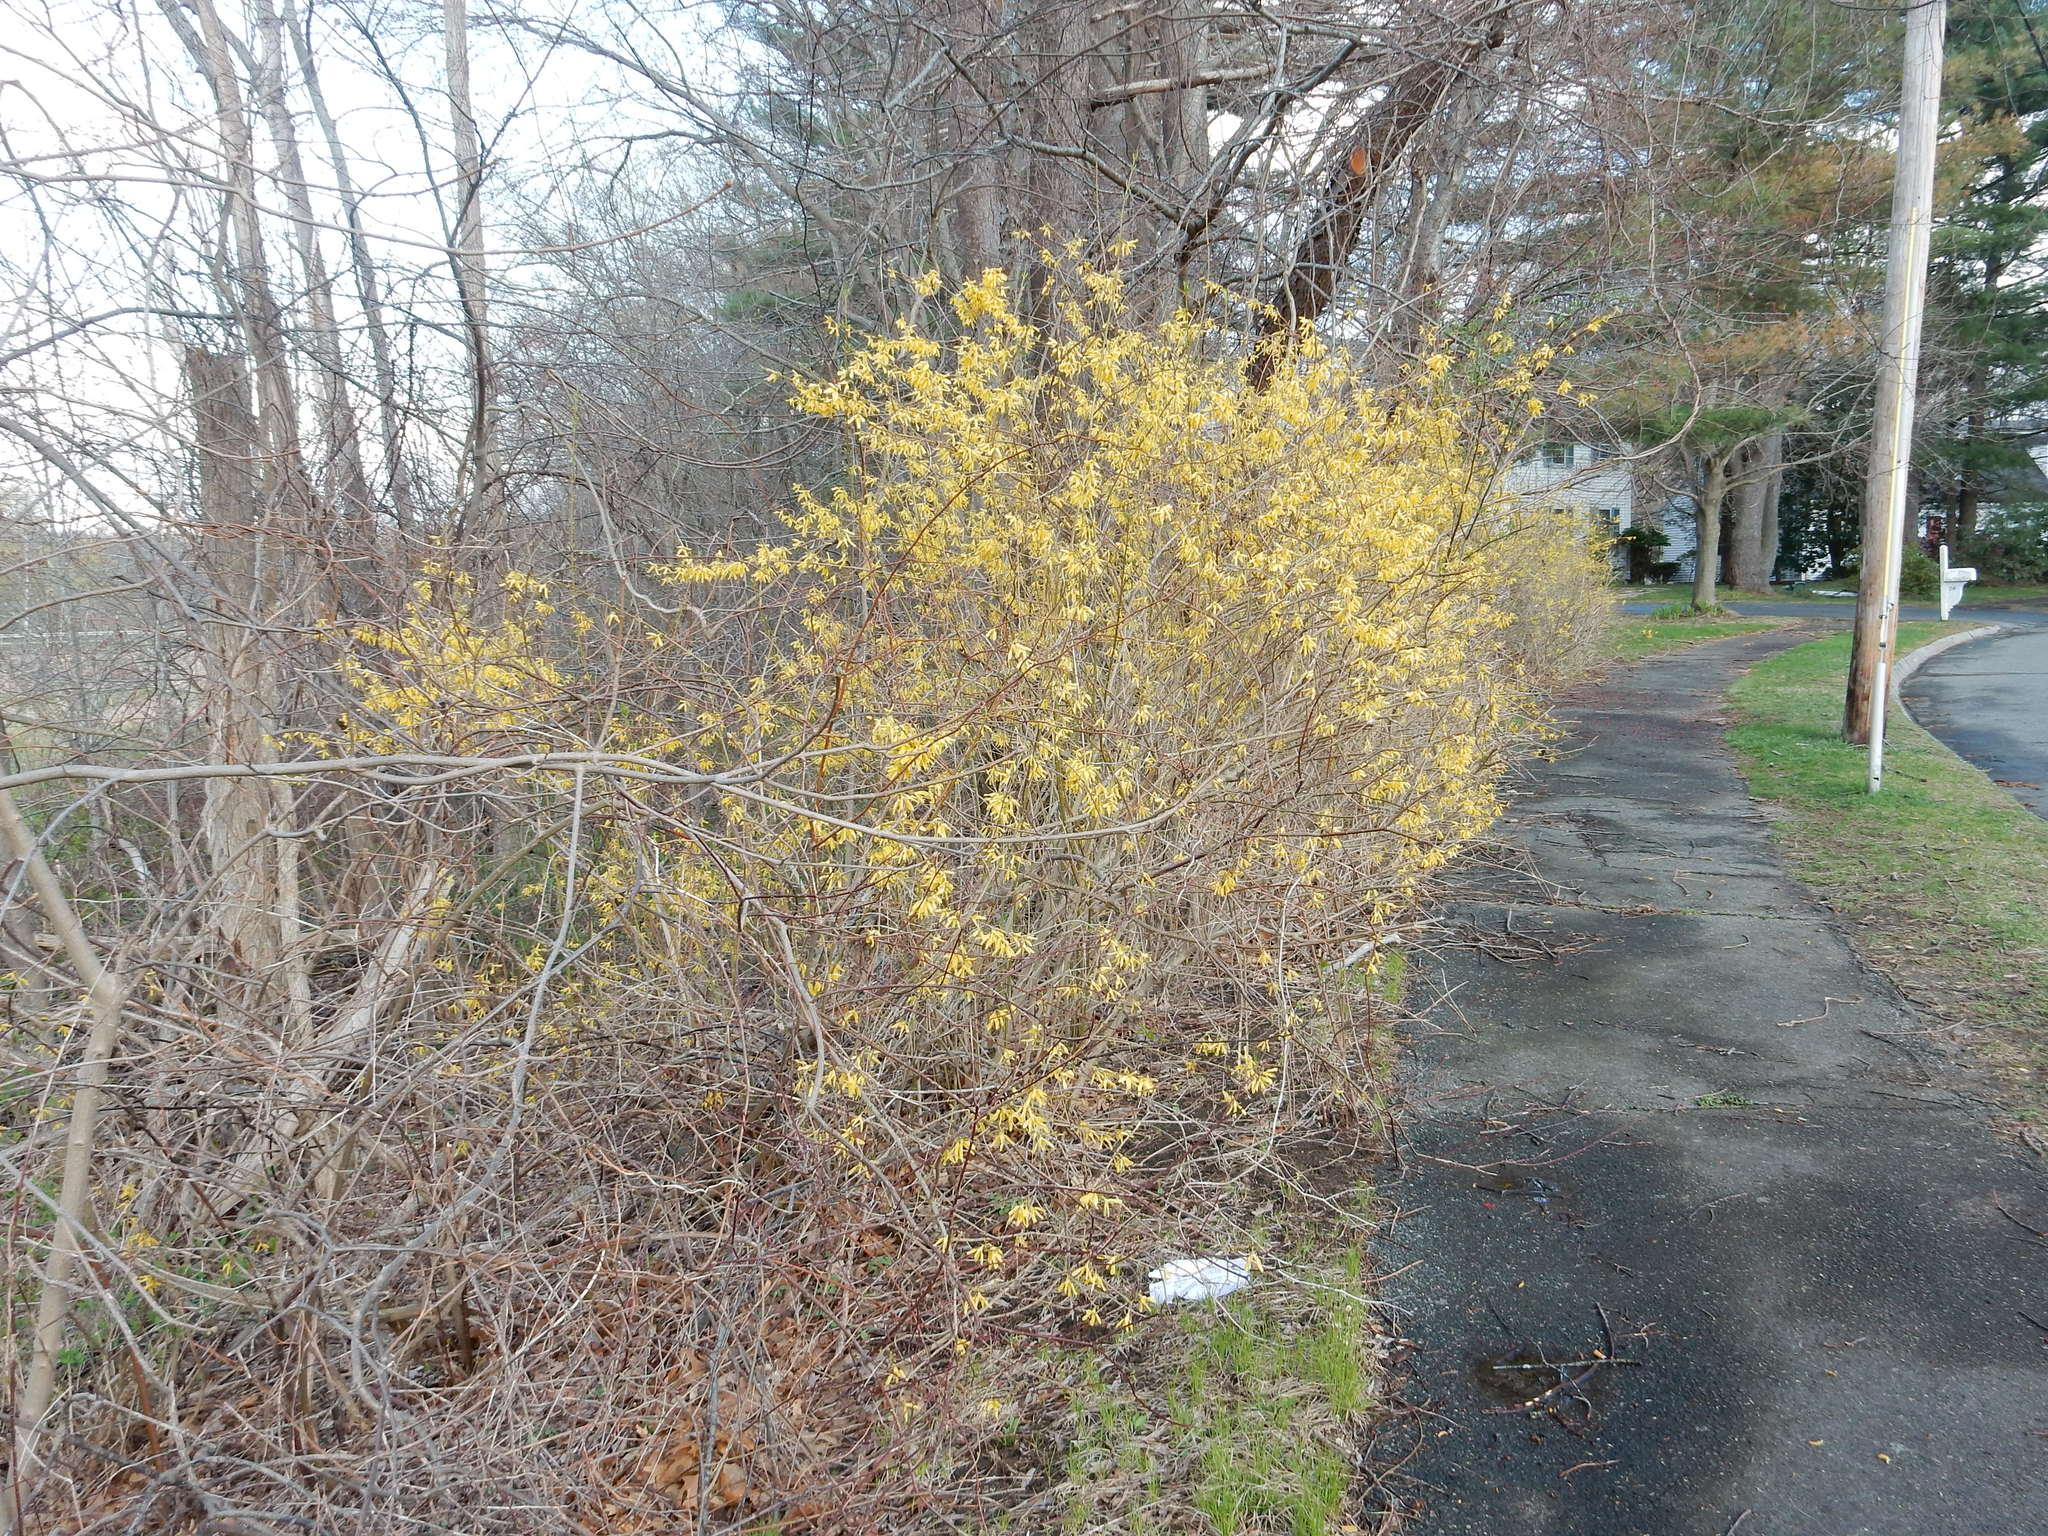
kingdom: Plantae
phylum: Tracheophyta
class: Magnoliopsida
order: Lamiales
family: Oleaceae
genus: Forsythia
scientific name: Forsythia intermedia
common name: Forsythia
